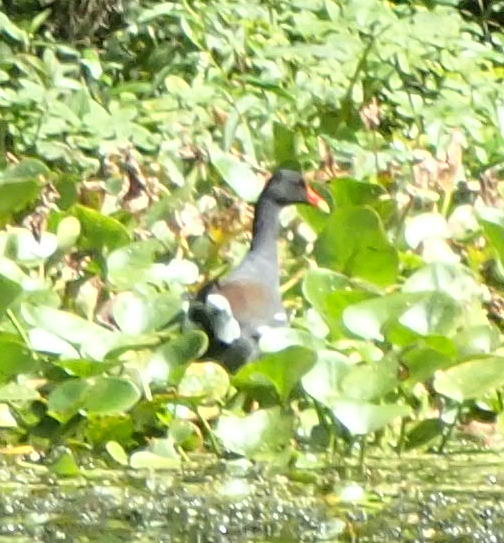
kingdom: Animalia
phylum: Chordata
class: Aves
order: Gruiformes
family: Rallidae
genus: Gallinula
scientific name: Gallinula chloropus
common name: Common moorhen
